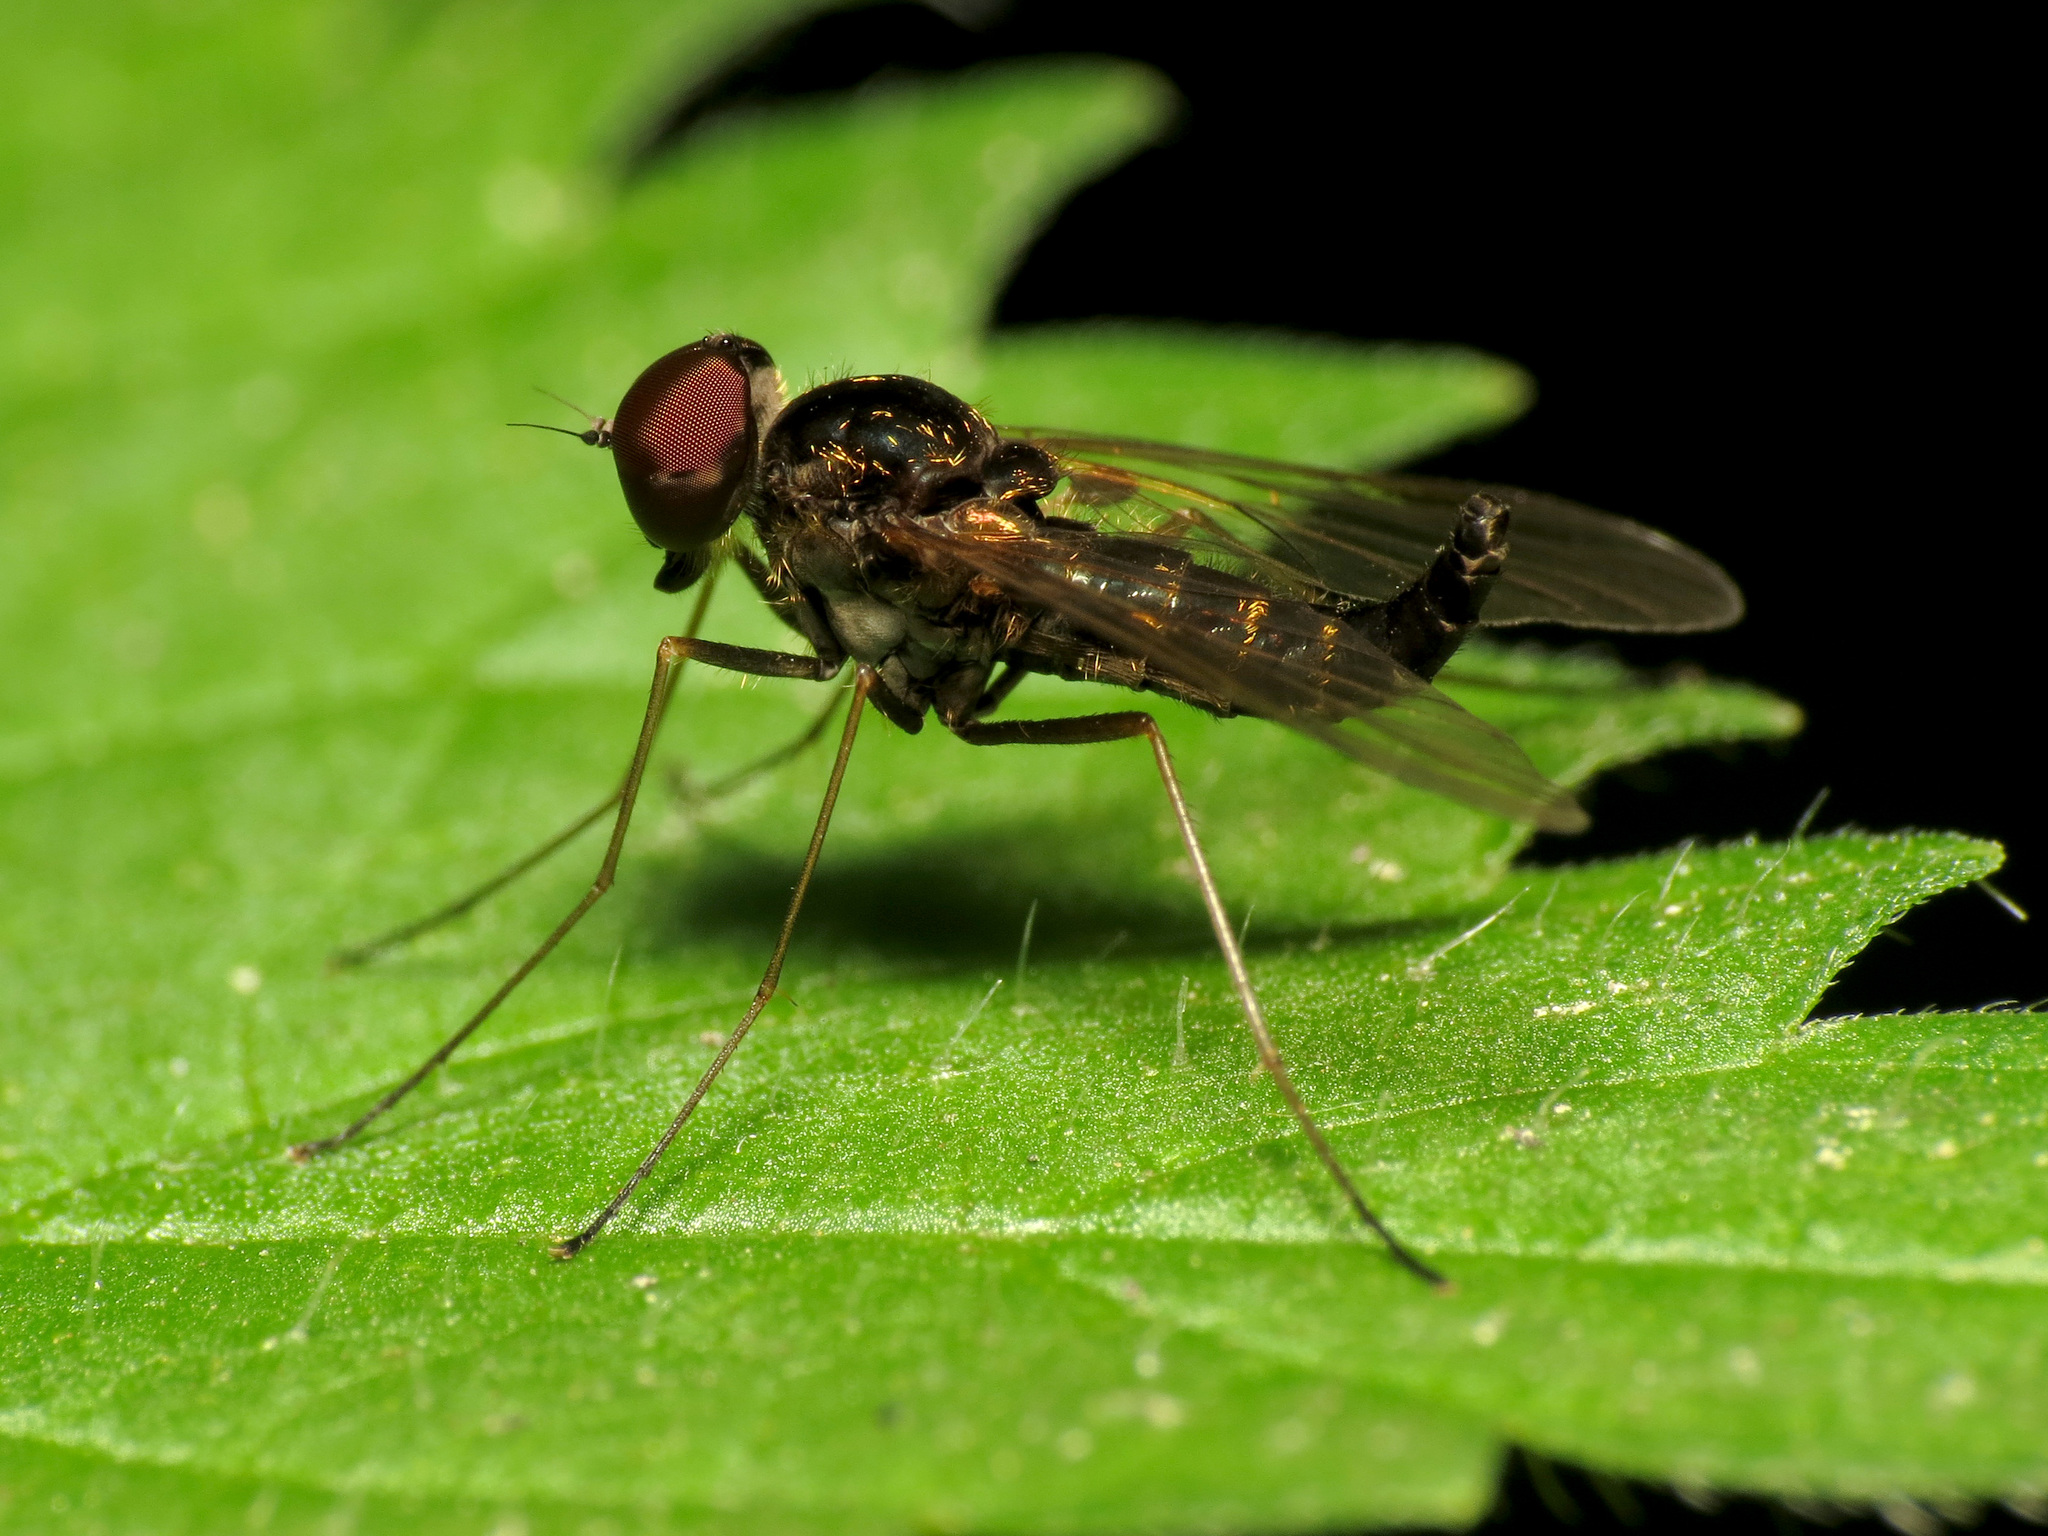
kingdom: Animalia
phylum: Arthropoda
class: Insecta
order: Diptera
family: Rhagionidae
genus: Chrysopilus
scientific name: Chrysopilus fasciatus
